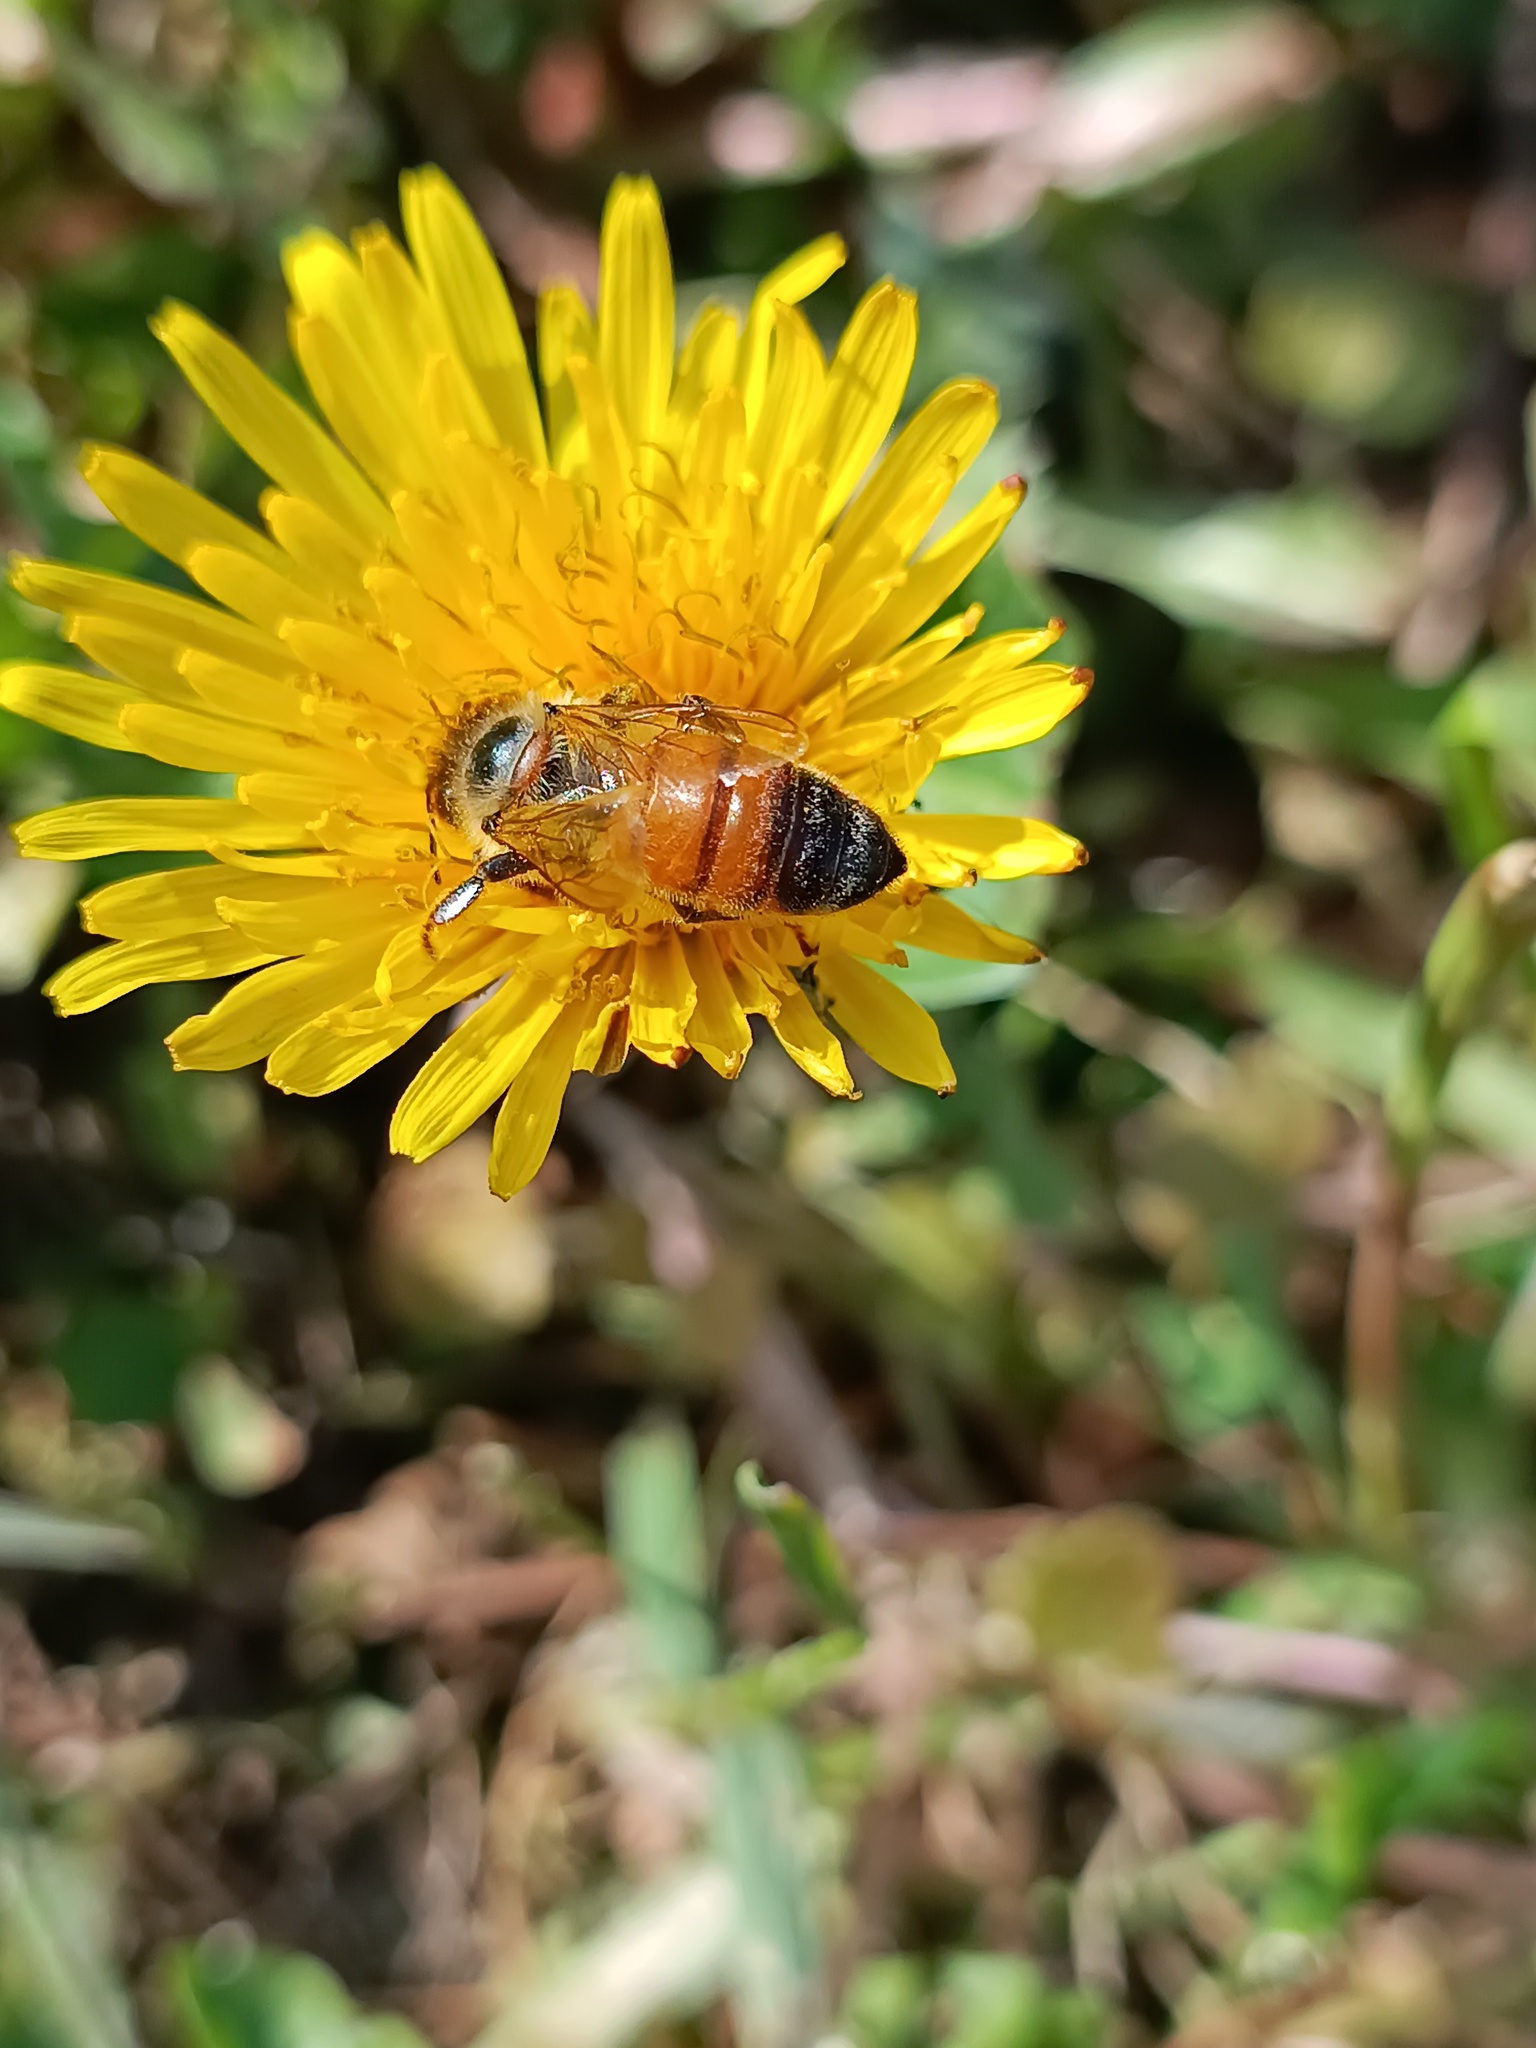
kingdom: Animalia
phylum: Arthropoda
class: Insecta
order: Hymenoptera
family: Apidae
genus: Apis
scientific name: Apis mellifera
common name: Honey bee
